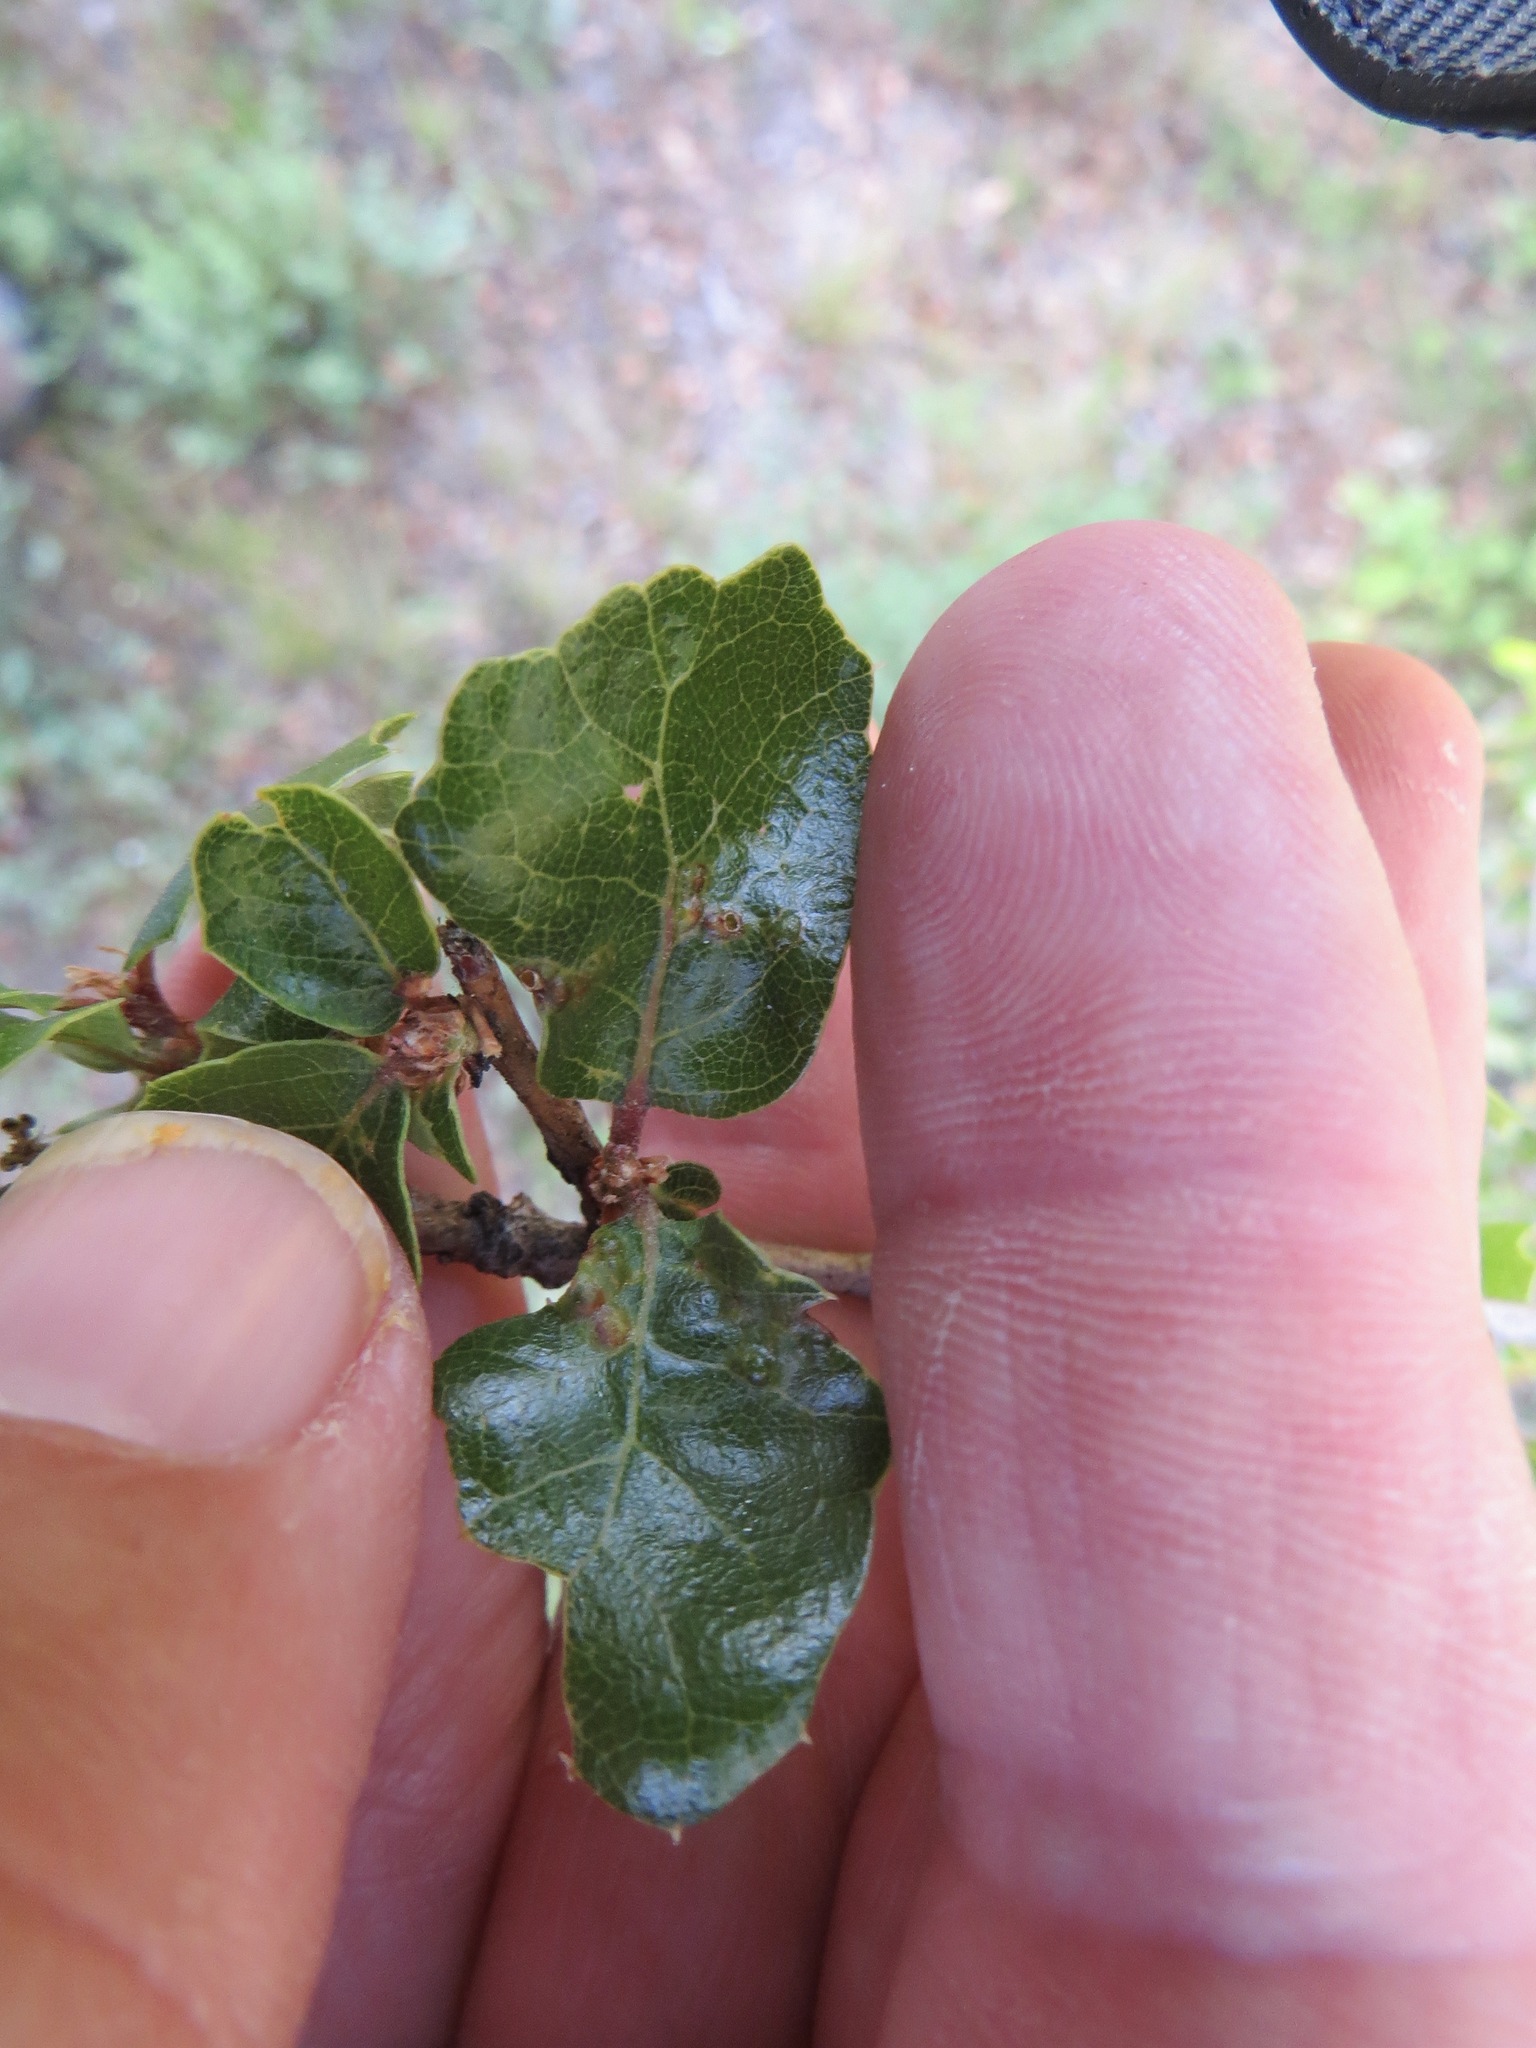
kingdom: Animalia
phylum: Arthropoda
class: Insecta
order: Hymenoptera
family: Cynipidae
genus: Neuroterus
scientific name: Neuroterus saltarius
